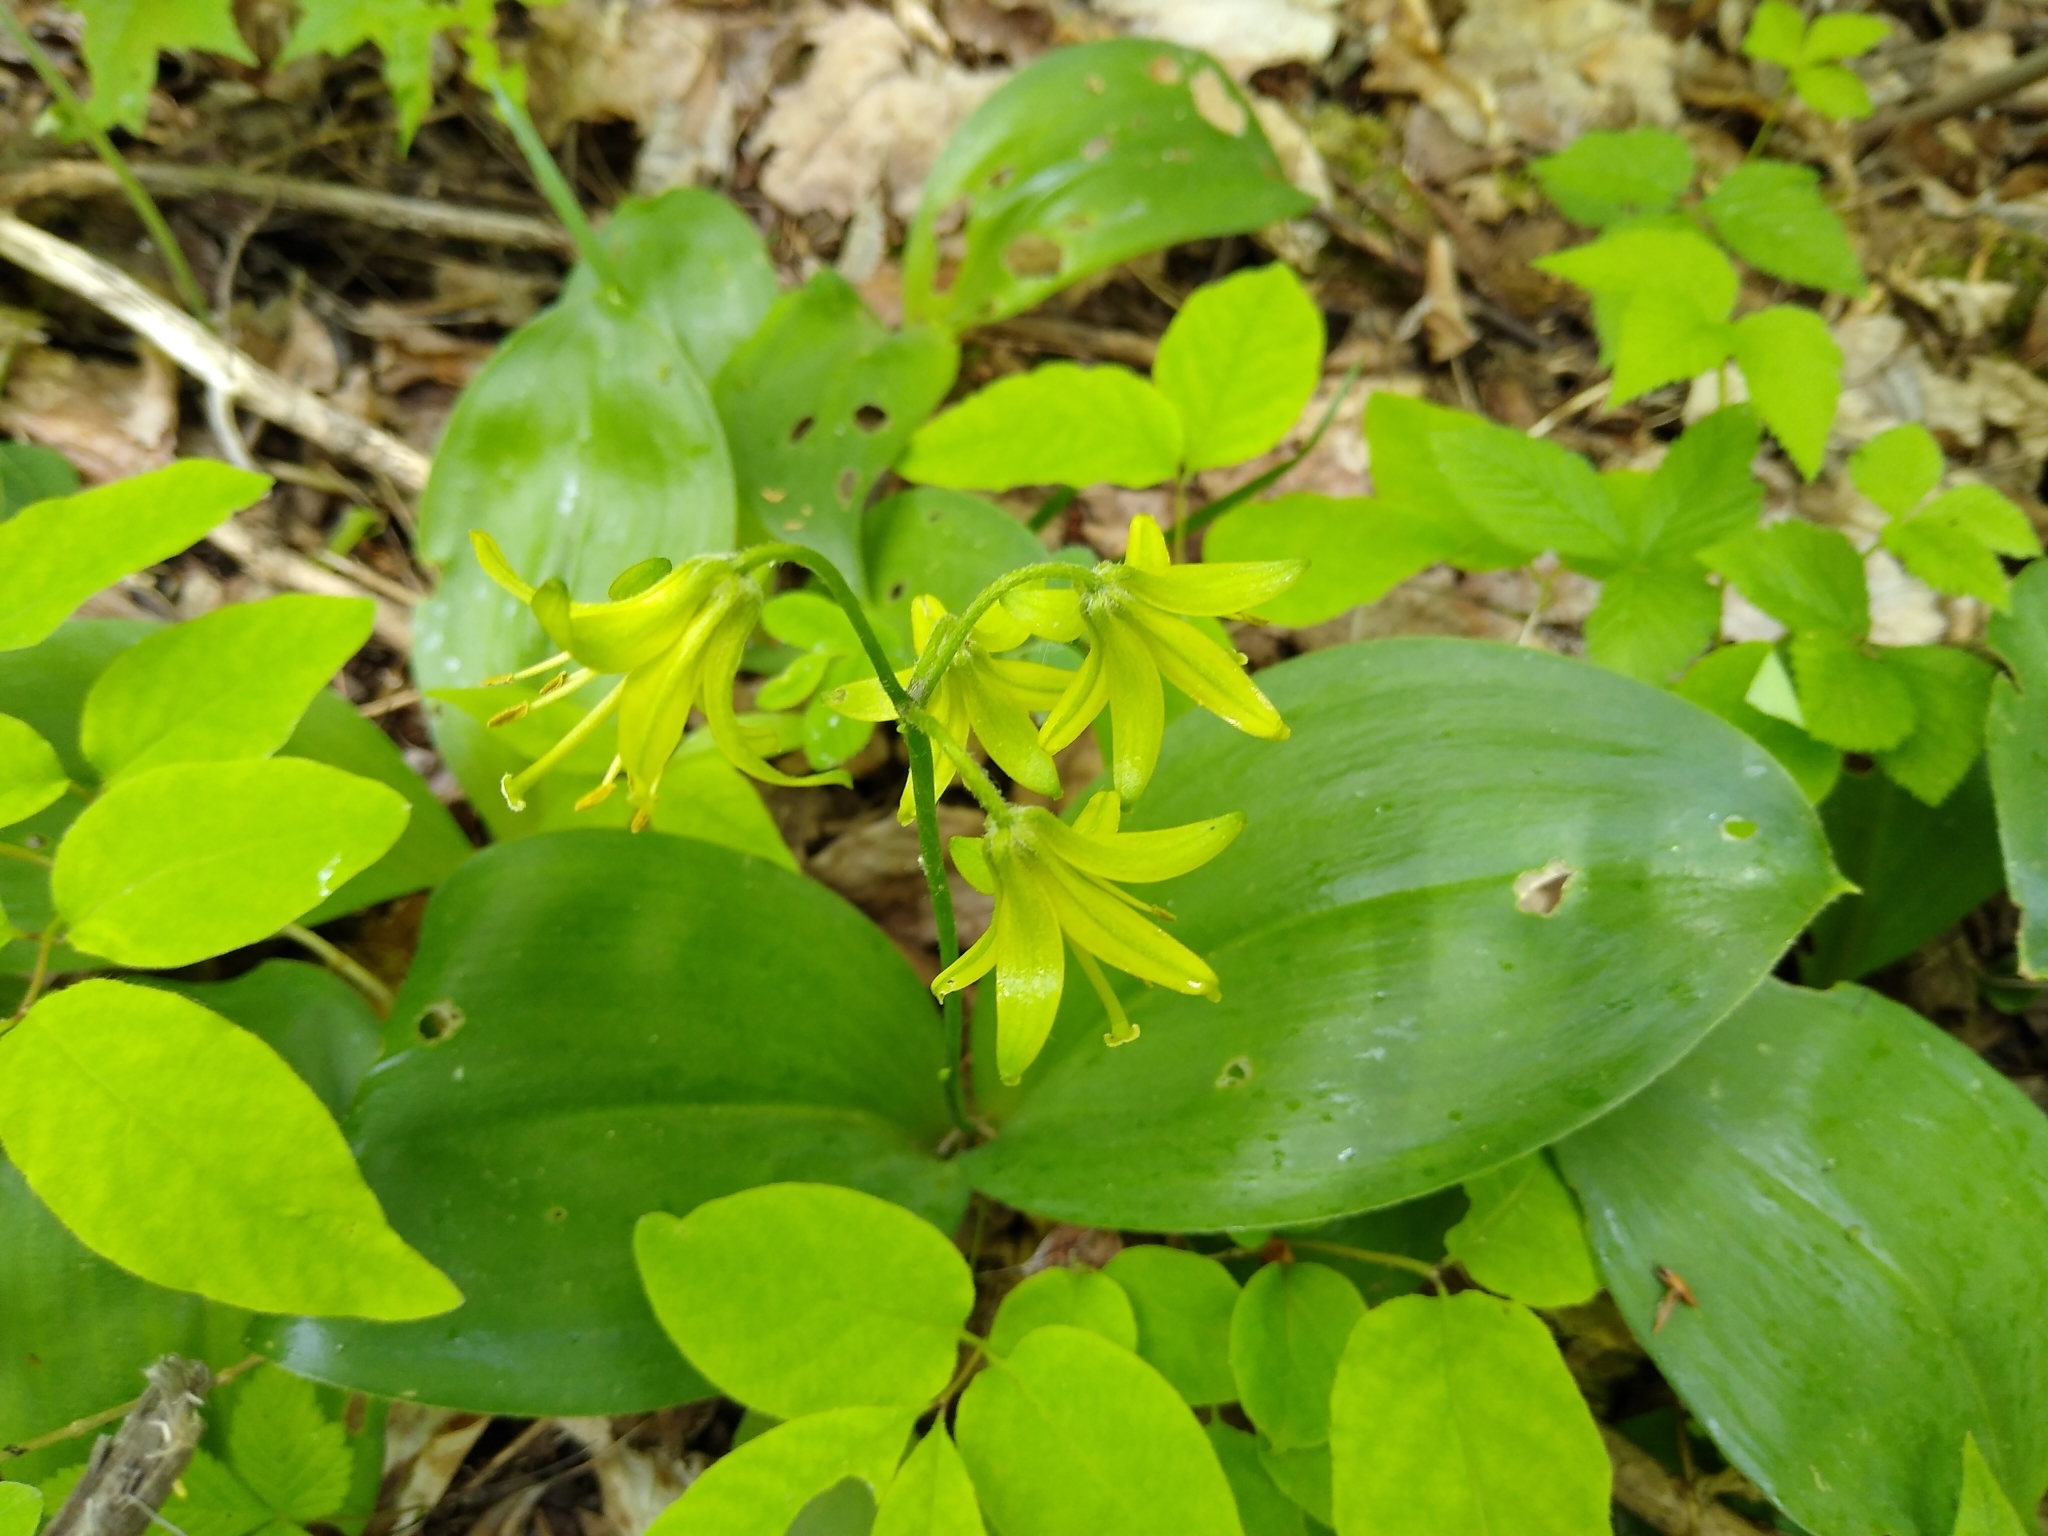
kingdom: Plantae
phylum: Tracheophyta
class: Liliopsida
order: Liliales
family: Liliaceae
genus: Clintonia
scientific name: Clintonia borealis
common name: Yellow clintonia
